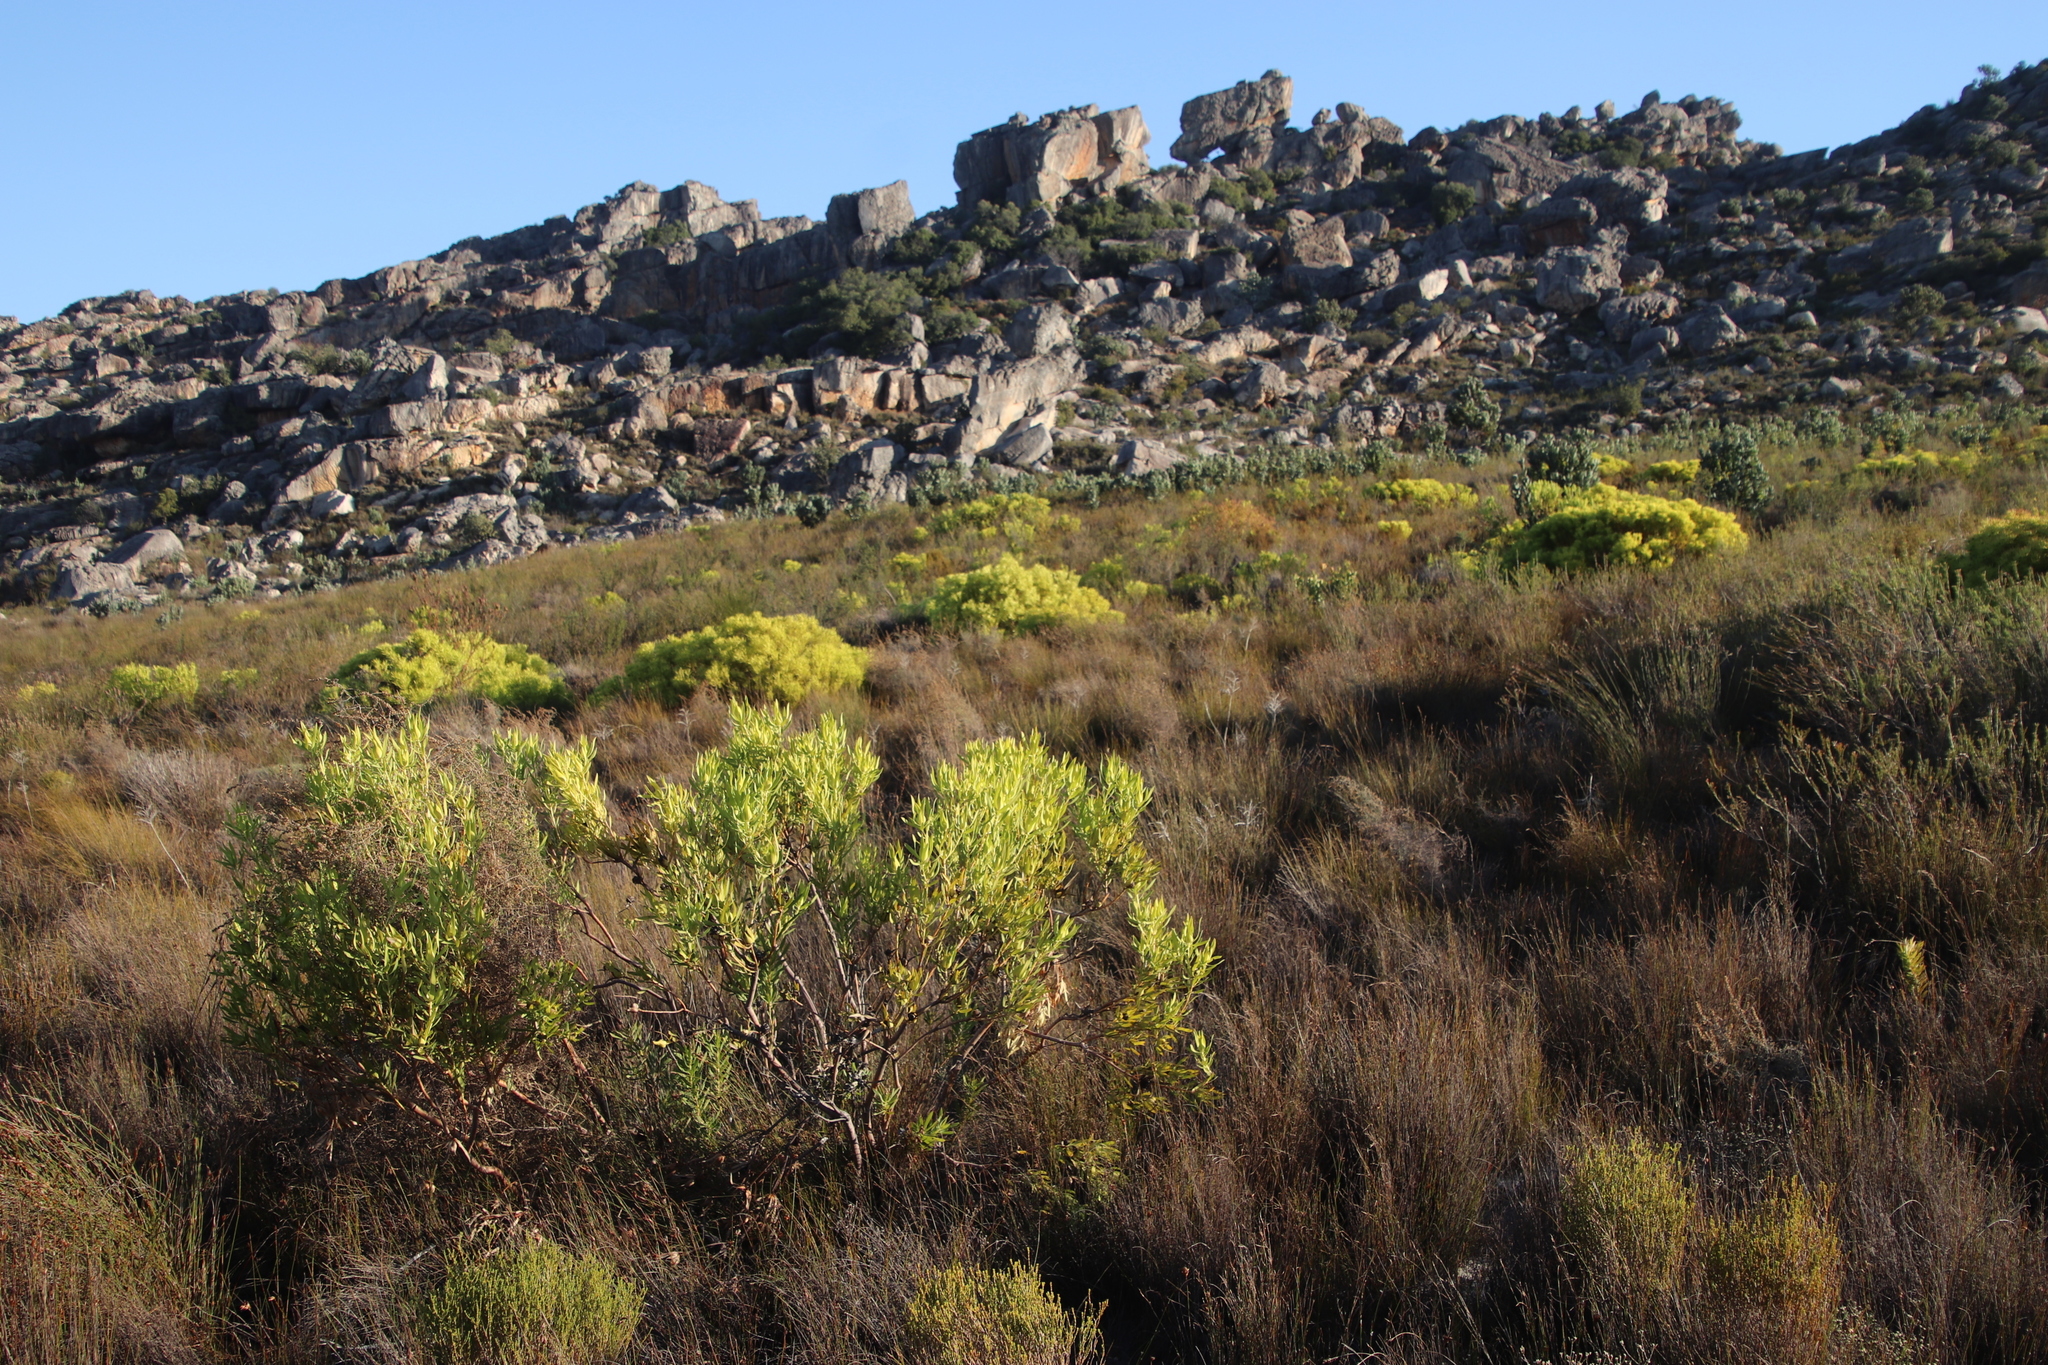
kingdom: Plantae
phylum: Tracheophyta
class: Magnoliopsida
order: Proteales
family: Proteaceae
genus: Leucadendron
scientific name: Leucadendron salignum
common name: Common sunshine conebush
